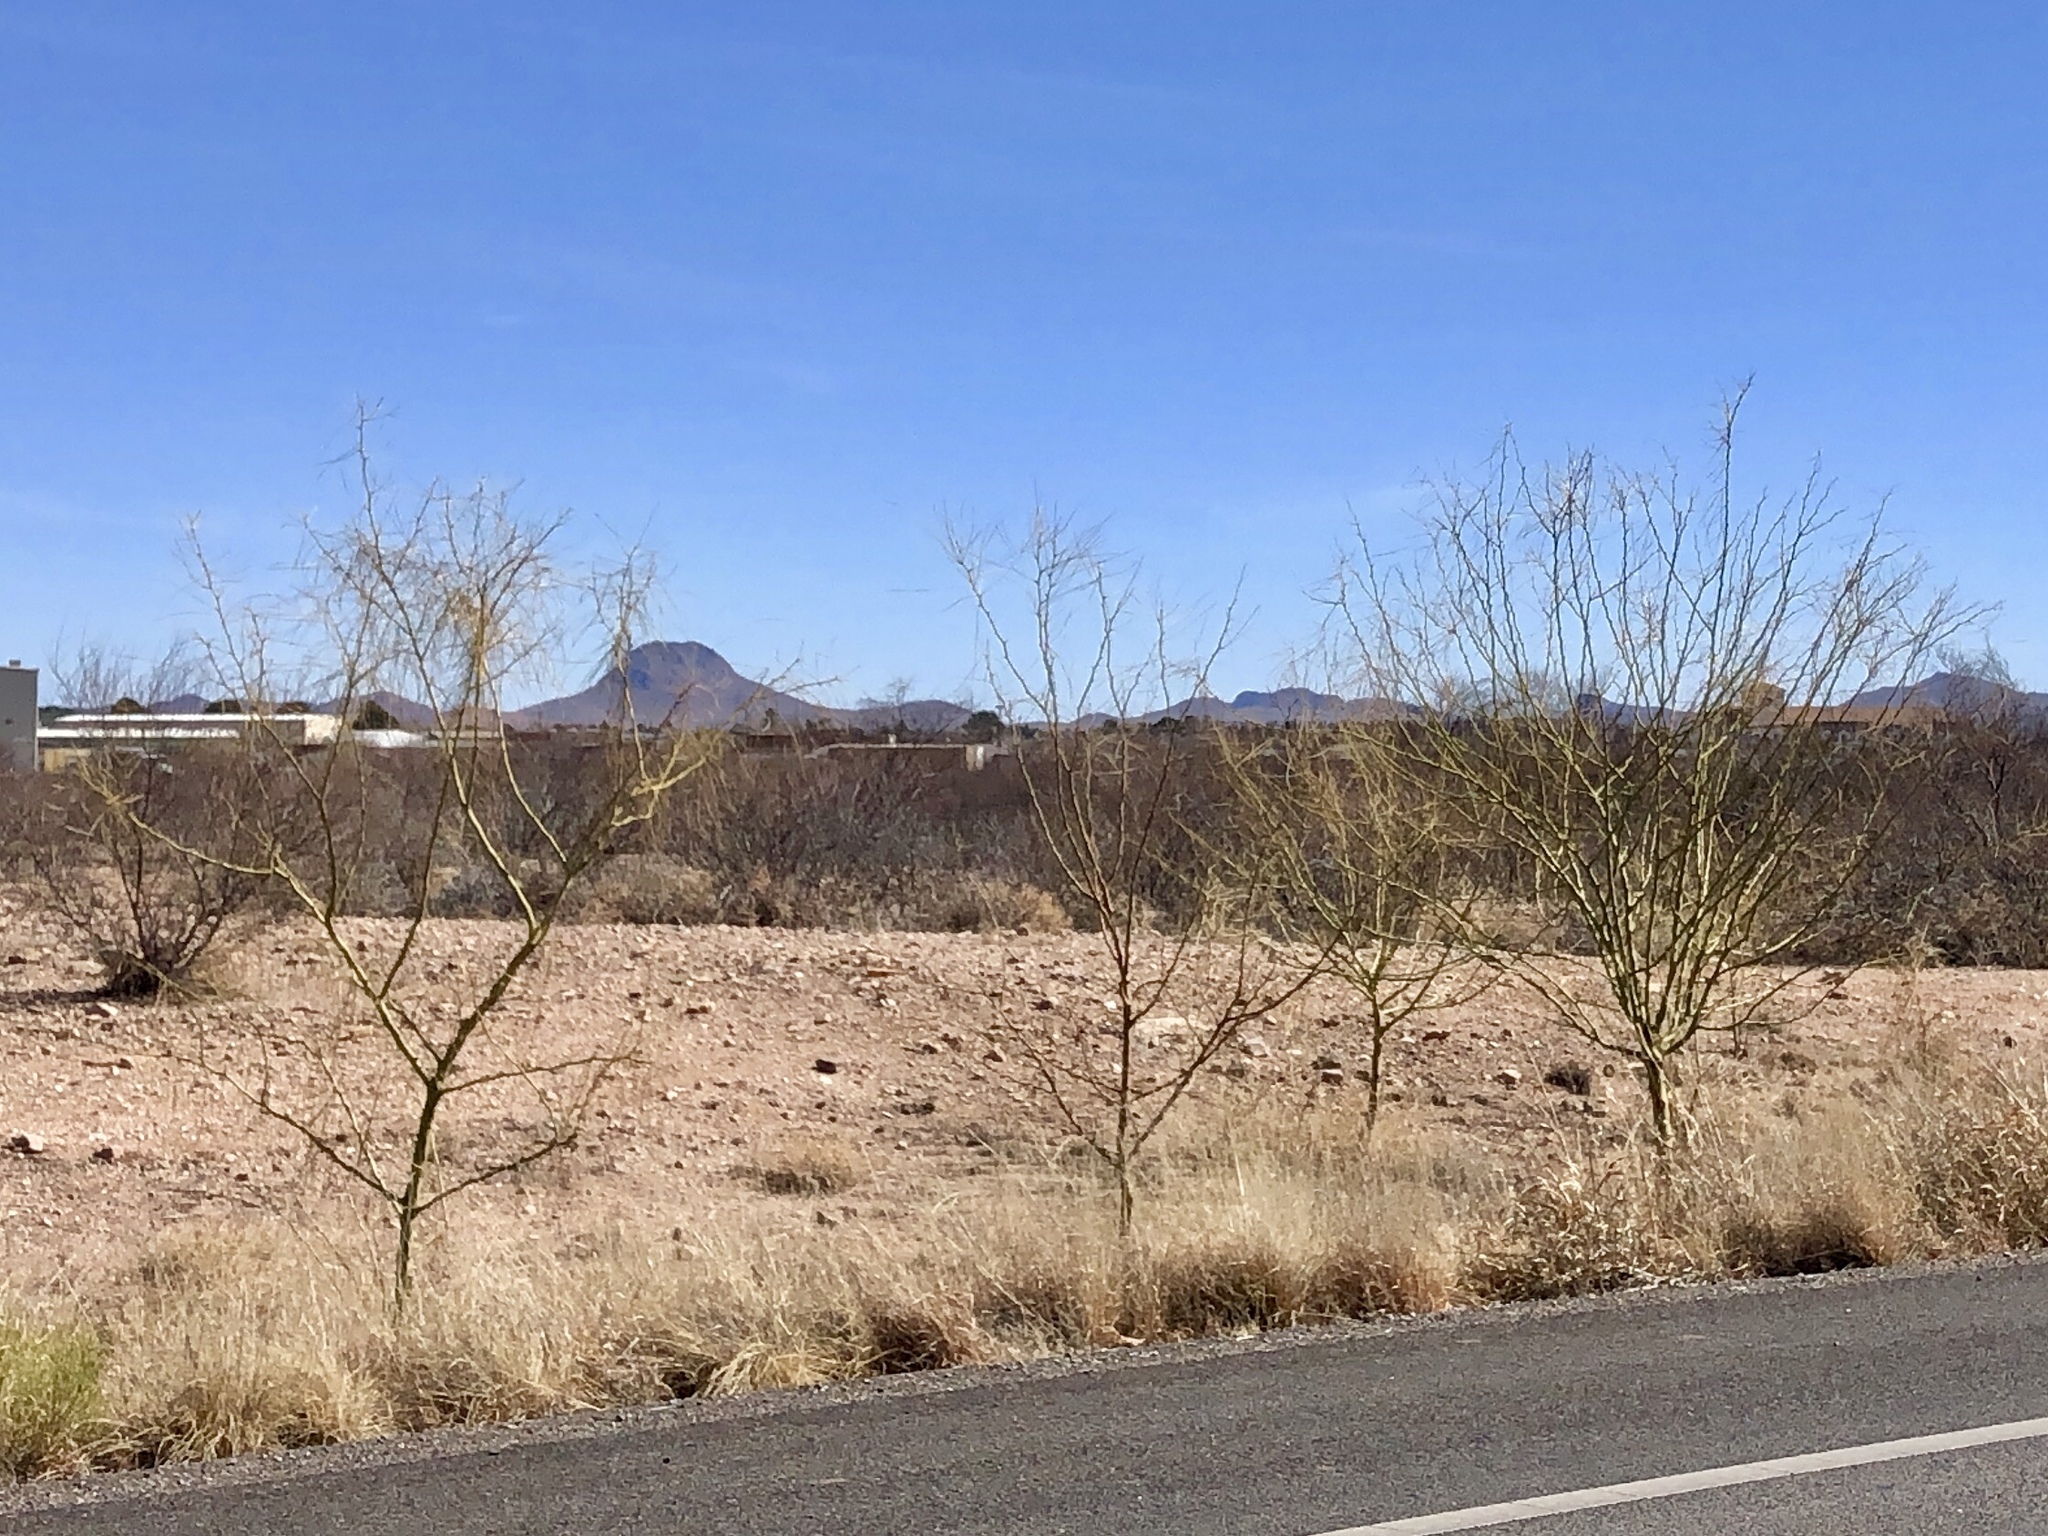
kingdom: Plantae
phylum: Tracheophyta
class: Magnoliopsida
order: Fabales
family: Fabaceae
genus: Parkinsonia
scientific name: Parkinsonia aculeata
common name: Jerusalem thorn
